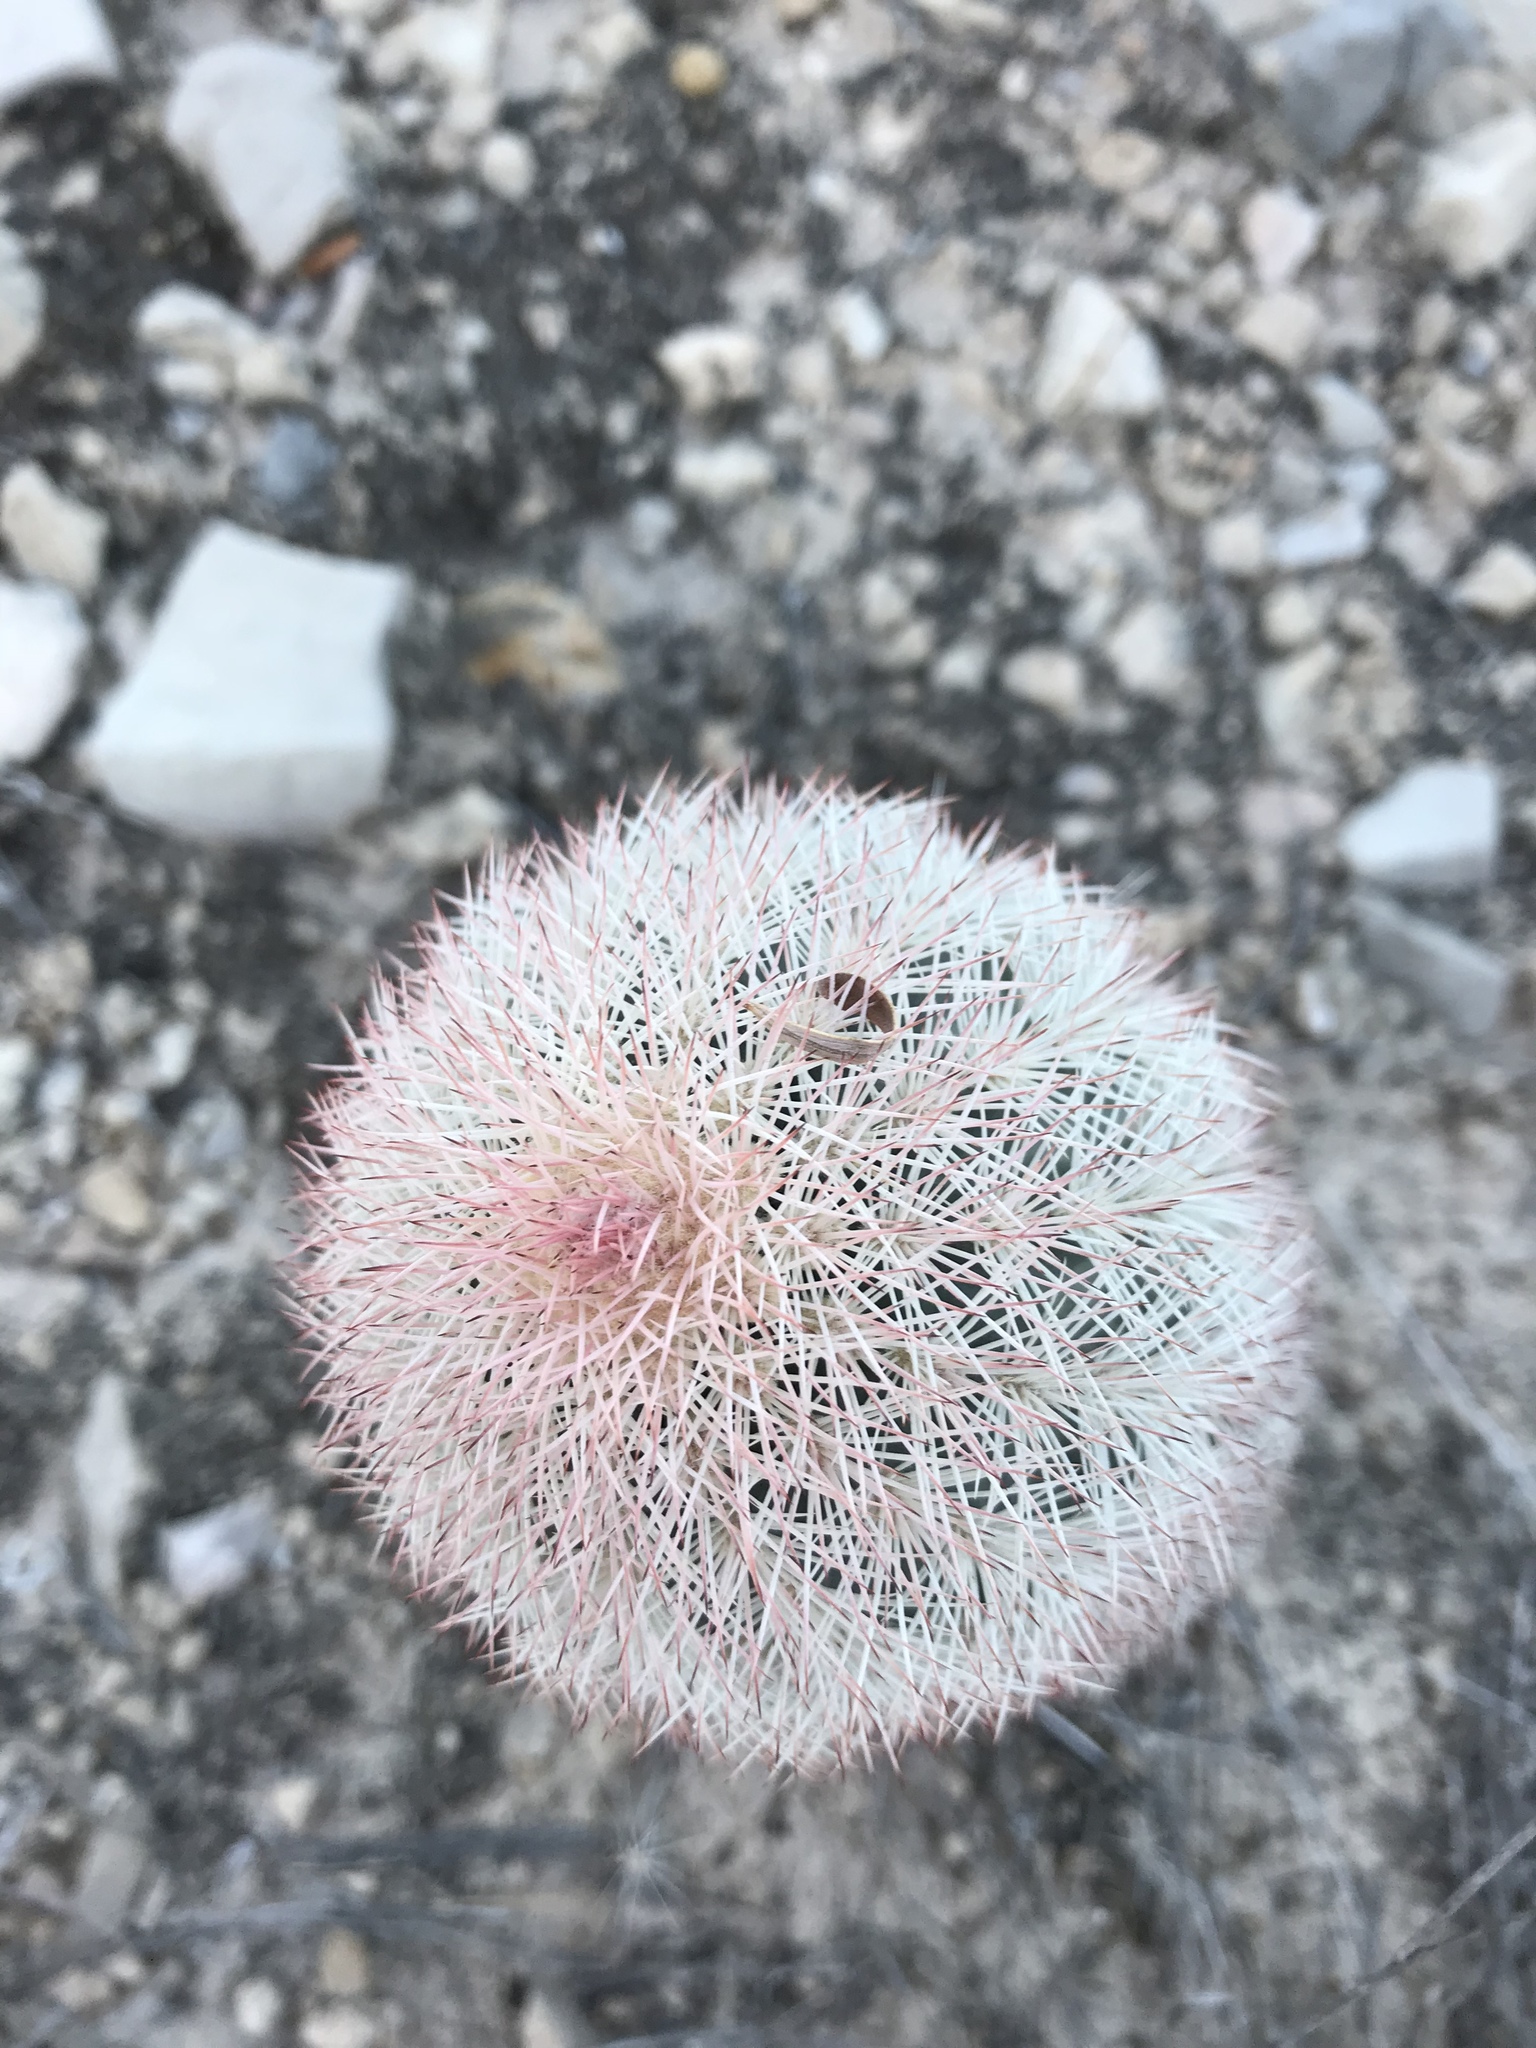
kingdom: Plantae
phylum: Tracheophyta
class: Magnoliopsida
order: Caryophyllales
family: Cactaceae
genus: Echinocereus
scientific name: Echinocereus dasyacanthus
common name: Spiny hedgehog cactus
